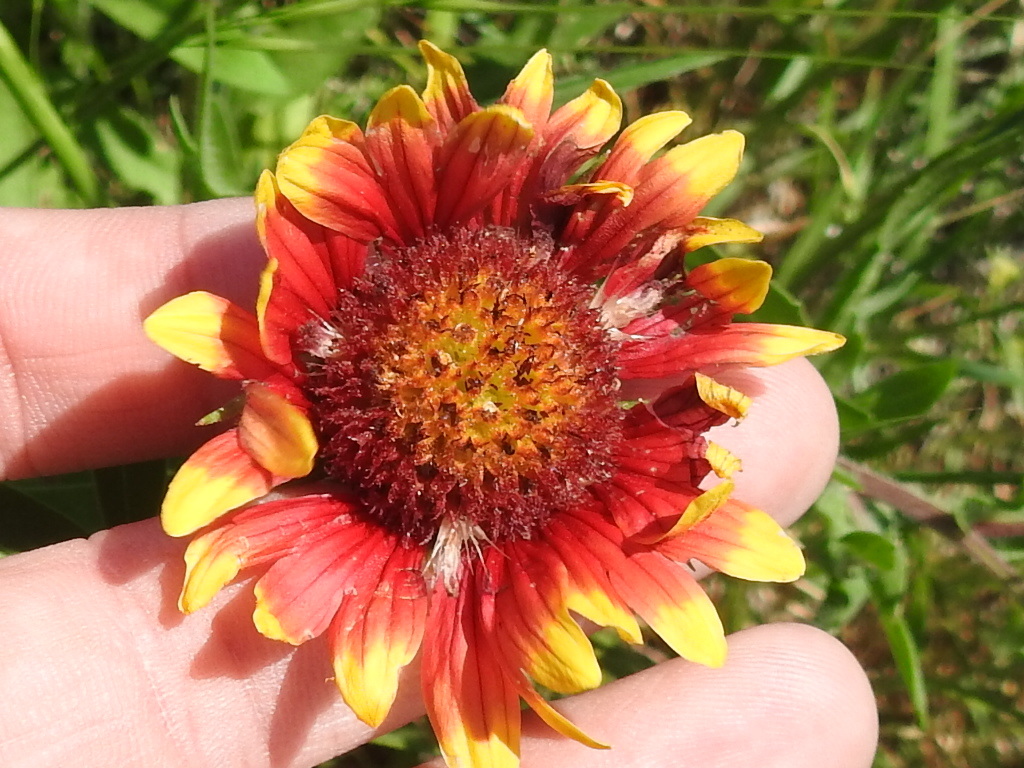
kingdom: Plantae
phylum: Tracheophyta
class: Magnoliopsida
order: Asterales
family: Asteraceae
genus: Gaillardia
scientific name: Gaillardia pulchella
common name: Firewheel
